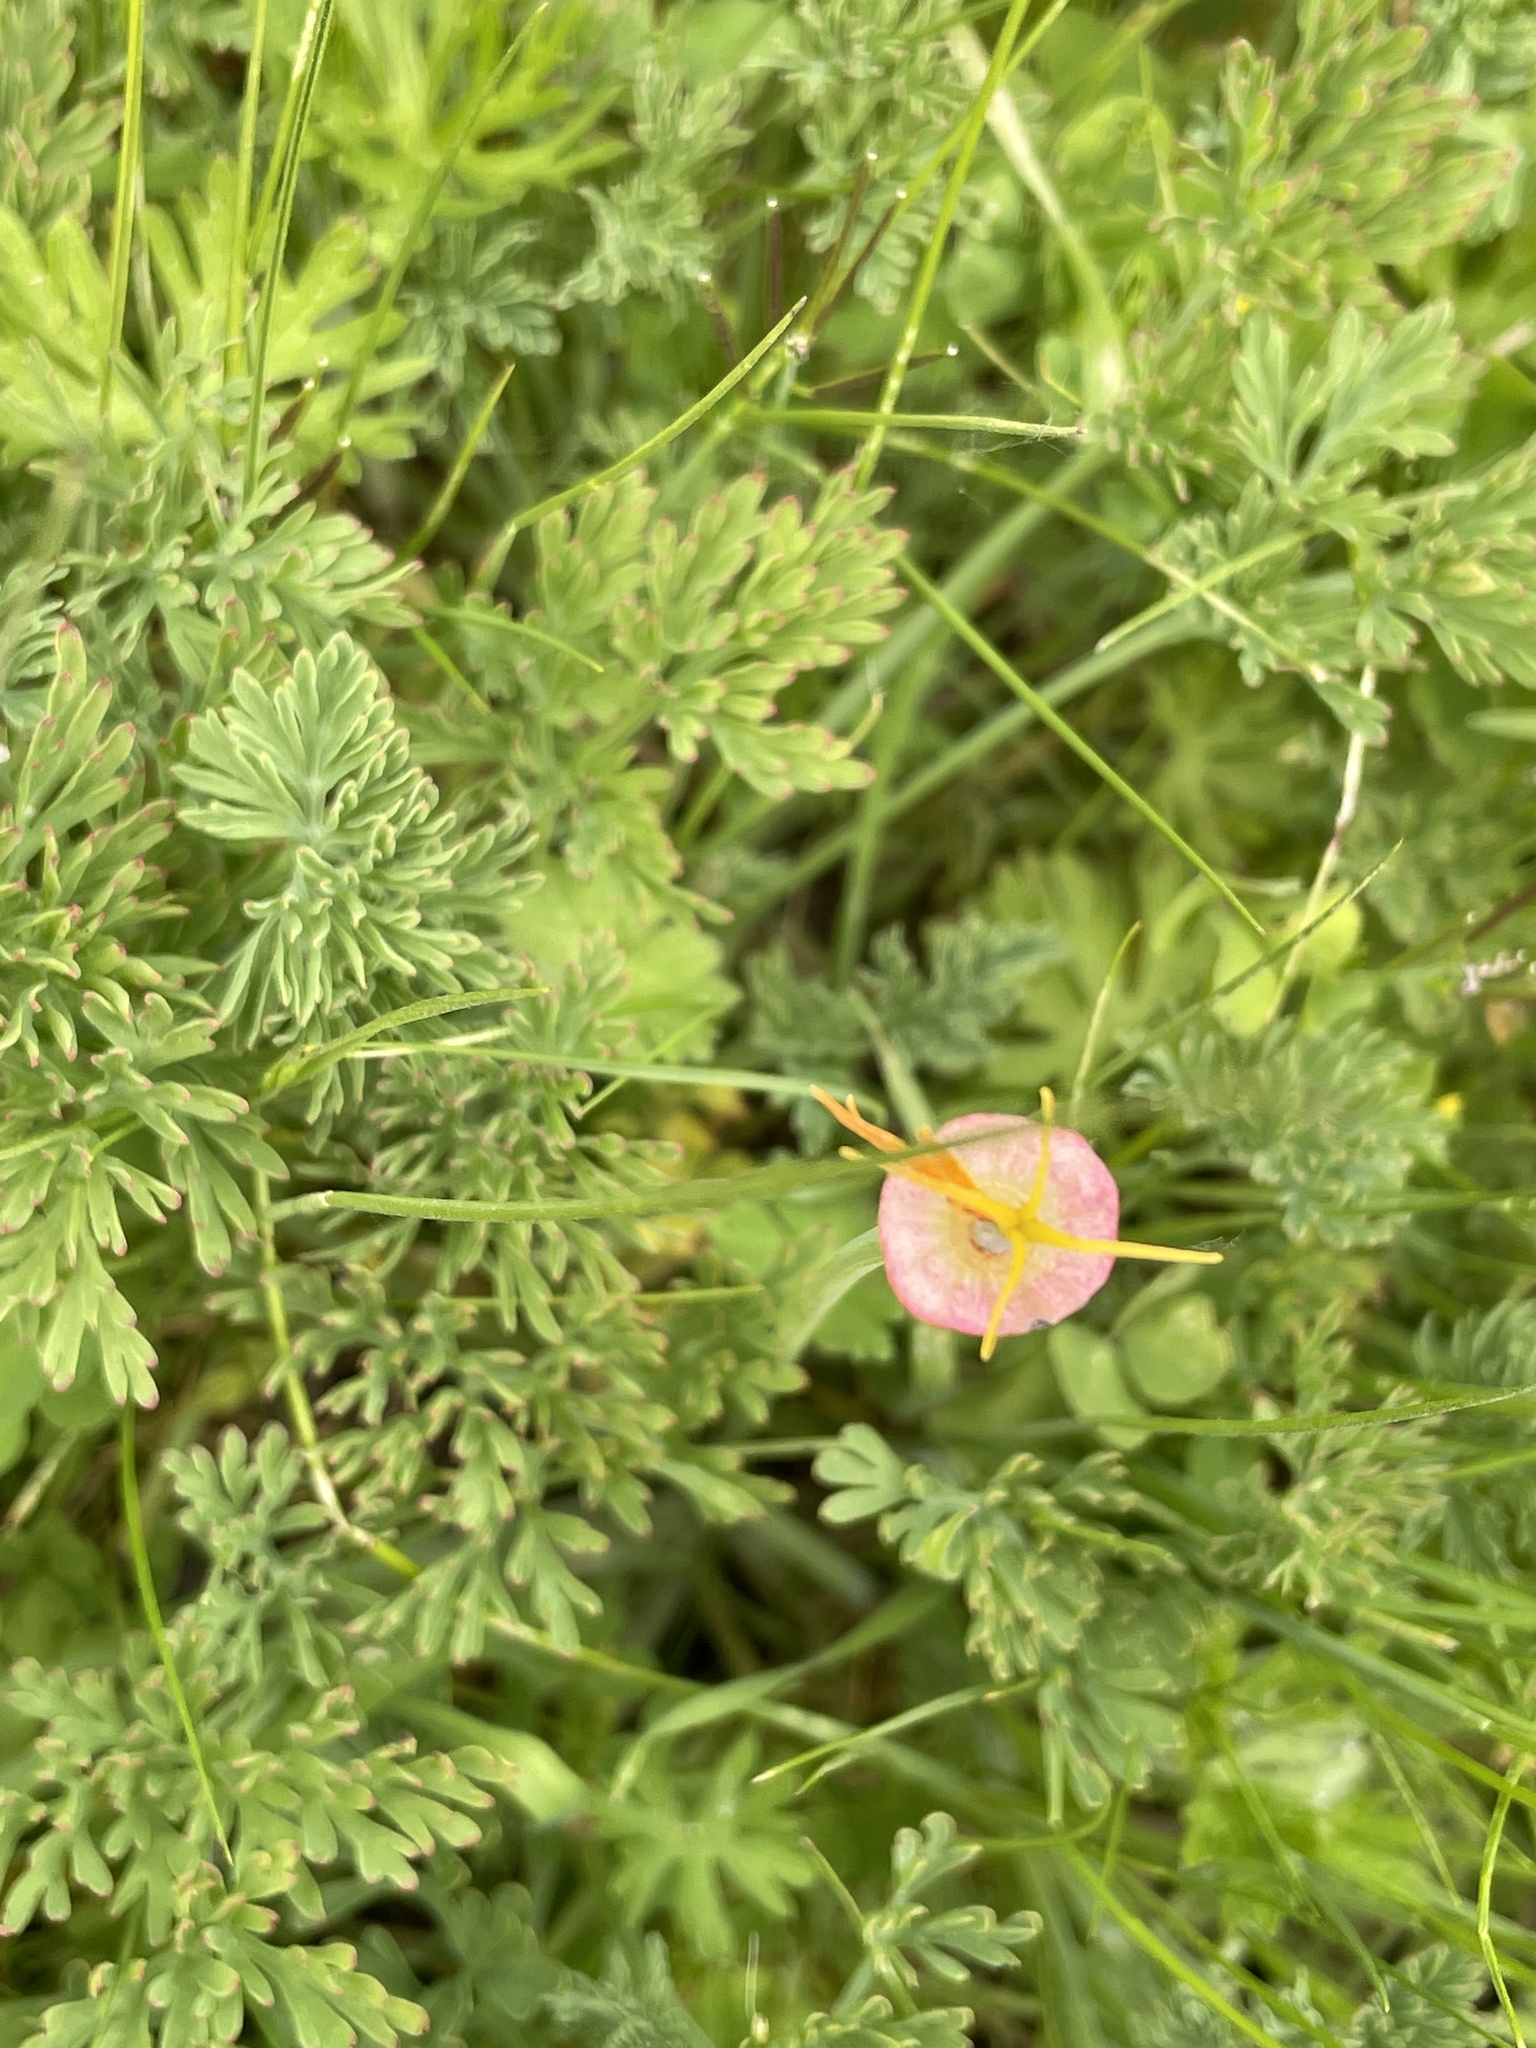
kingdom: Plantae
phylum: Tracheophyta
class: Magnoliopsida
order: Ranunculales
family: Papaveraceae
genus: Eschscholzia
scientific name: Eschscholzia californica
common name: California poppy
